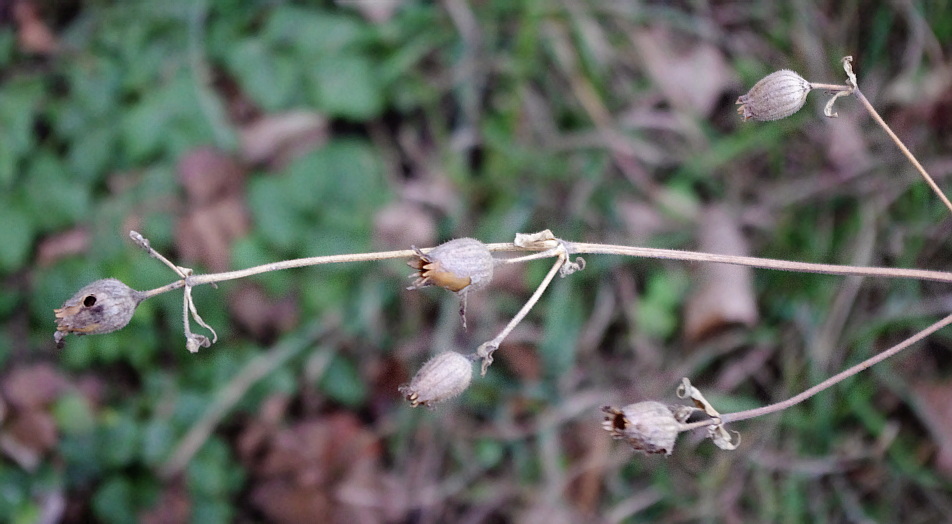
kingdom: Plantae
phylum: Tracheophyta
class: Magnoliopsida
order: Caryophyllales
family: Caryophyllaceae
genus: Silene
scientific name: Silene latifolia
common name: White campion
